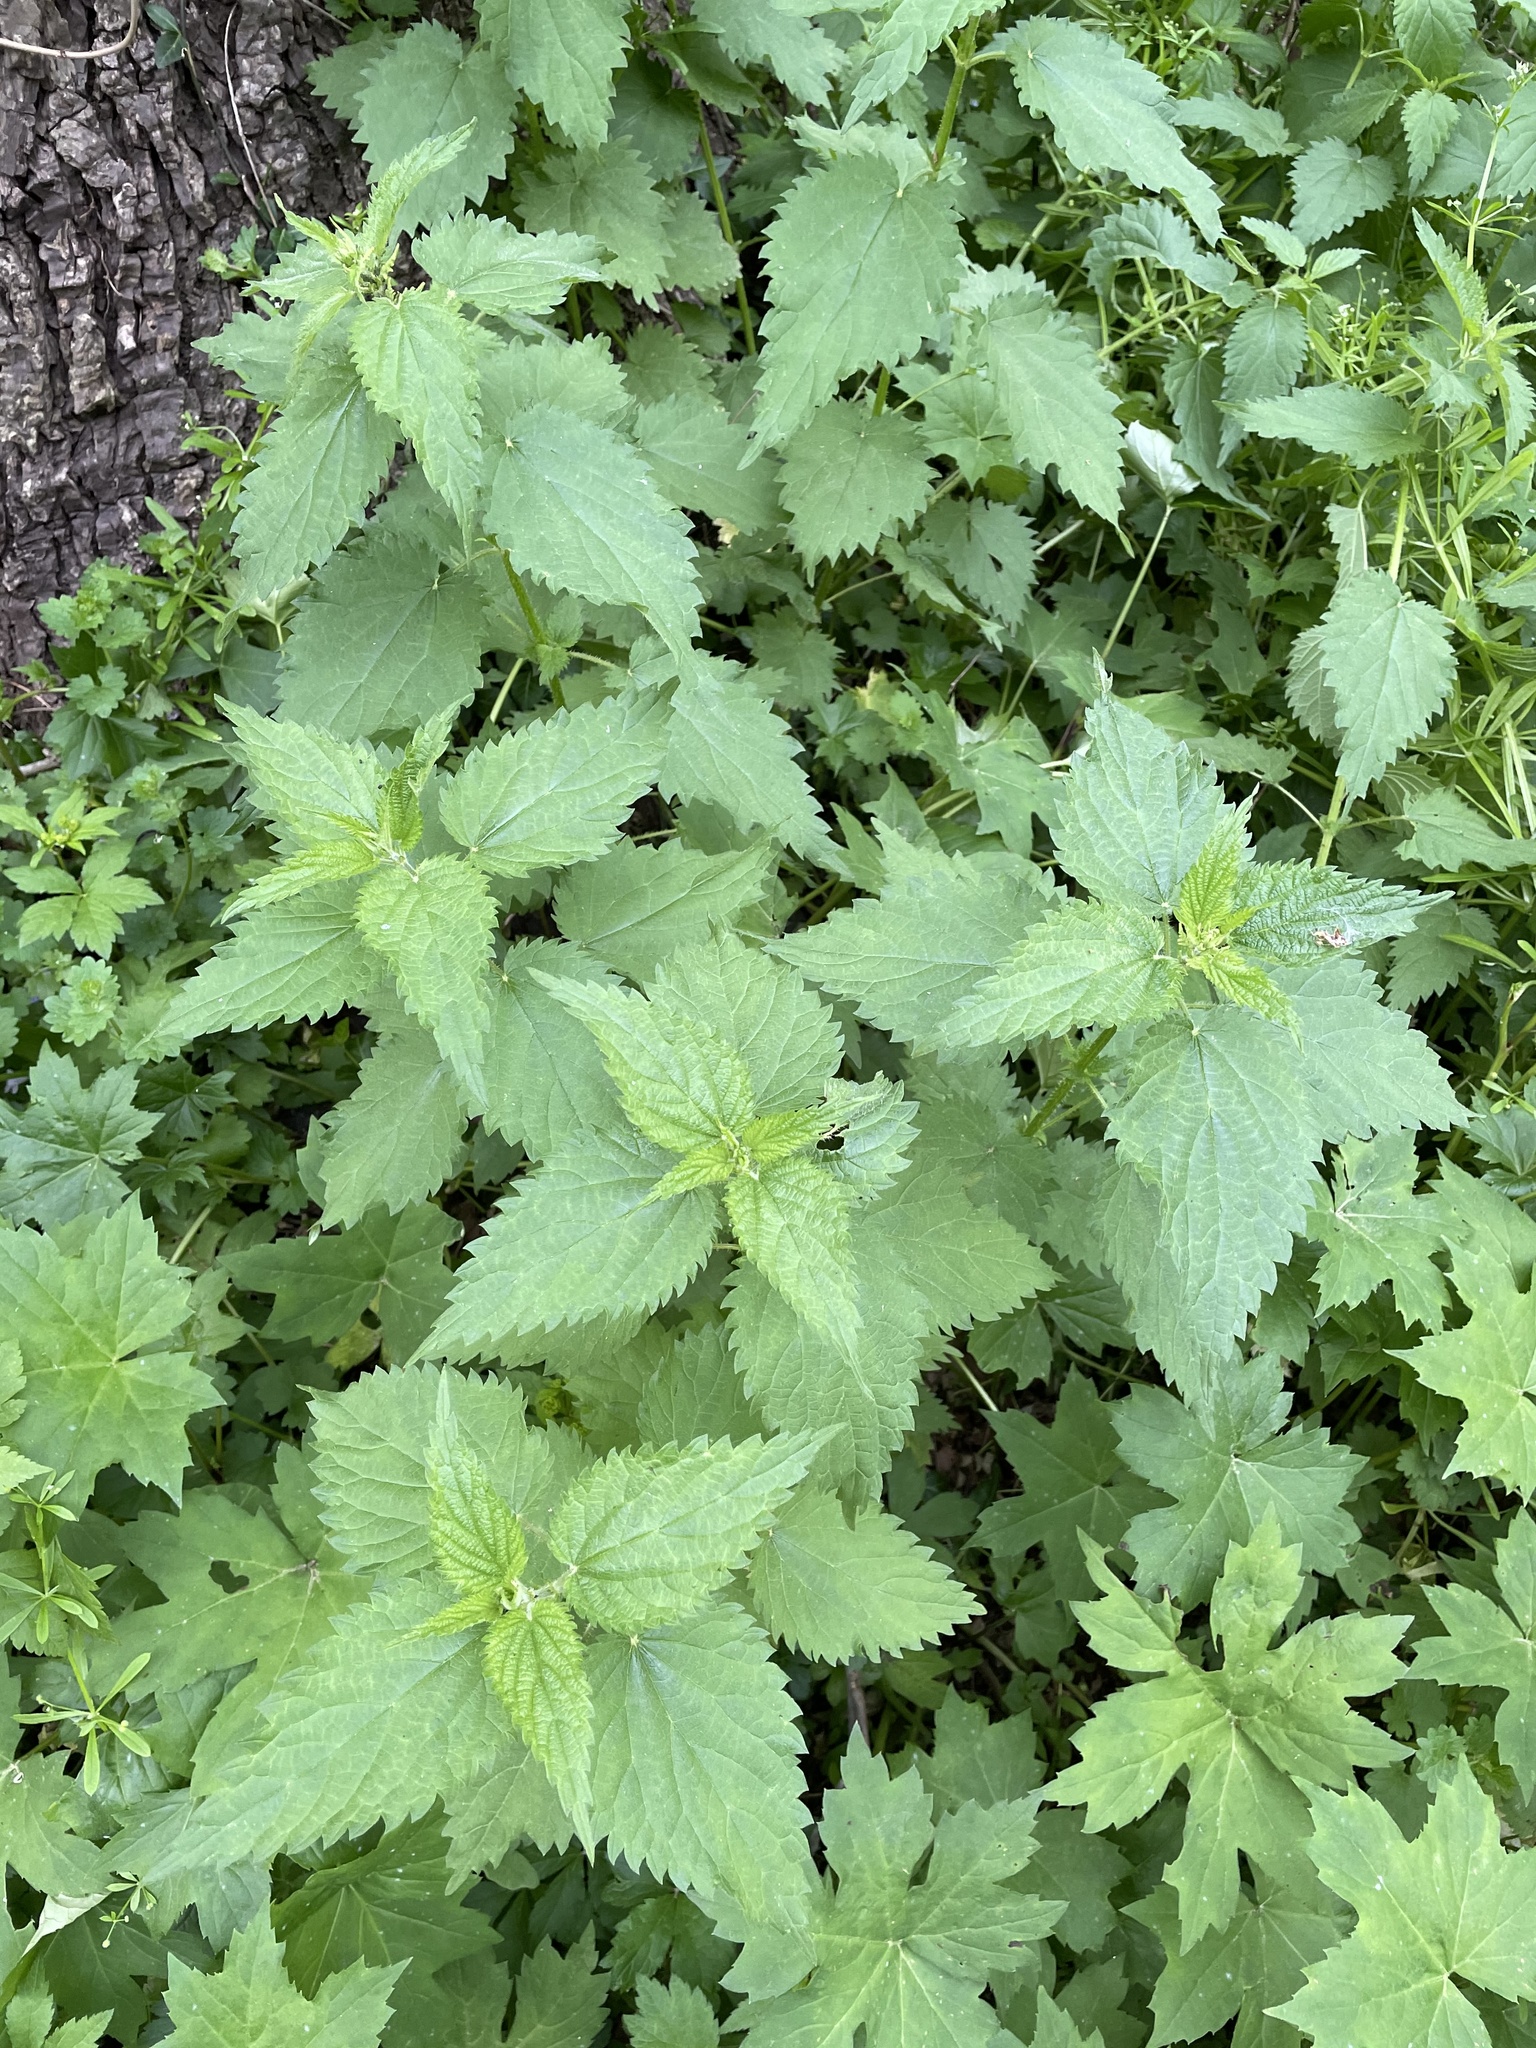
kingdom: Plantae
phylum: Tracheophyta
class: Magnoliopsida
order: Rosales
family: Urticaceae
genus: Urtica
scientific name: Urtica dioica
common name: Common nettle
